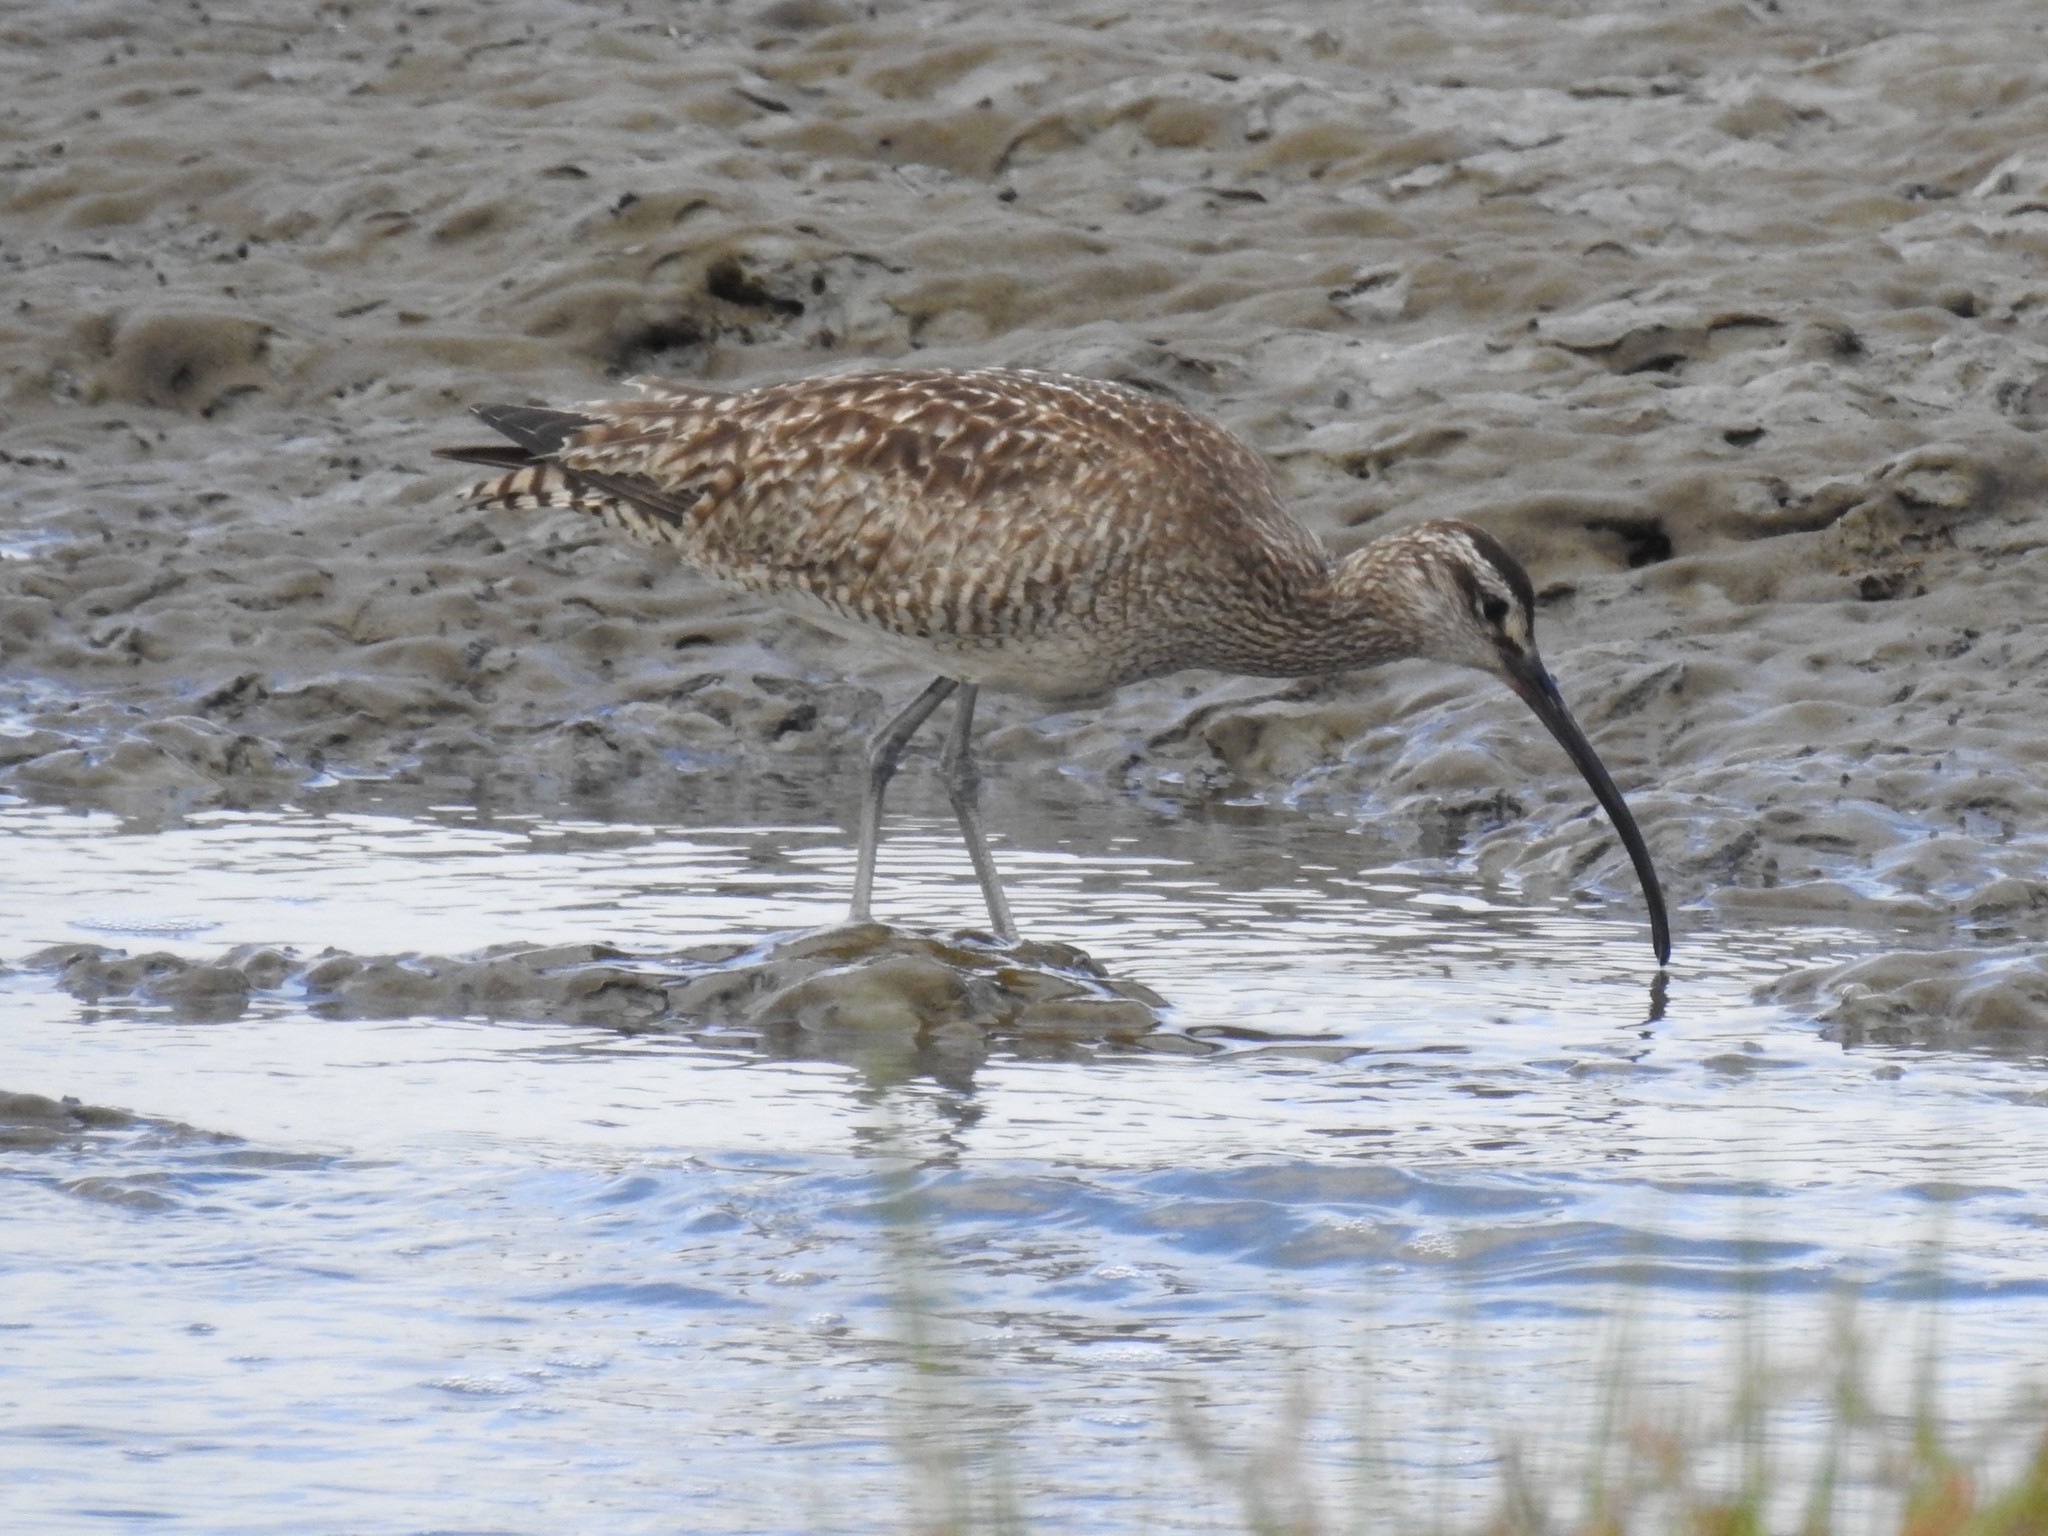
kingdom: Animalia
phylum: Chordata
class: Aves
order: Charadriiformes
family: Scolopacidae
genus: Numenius
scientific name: Numenius phaeopus
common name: Whimbrel
